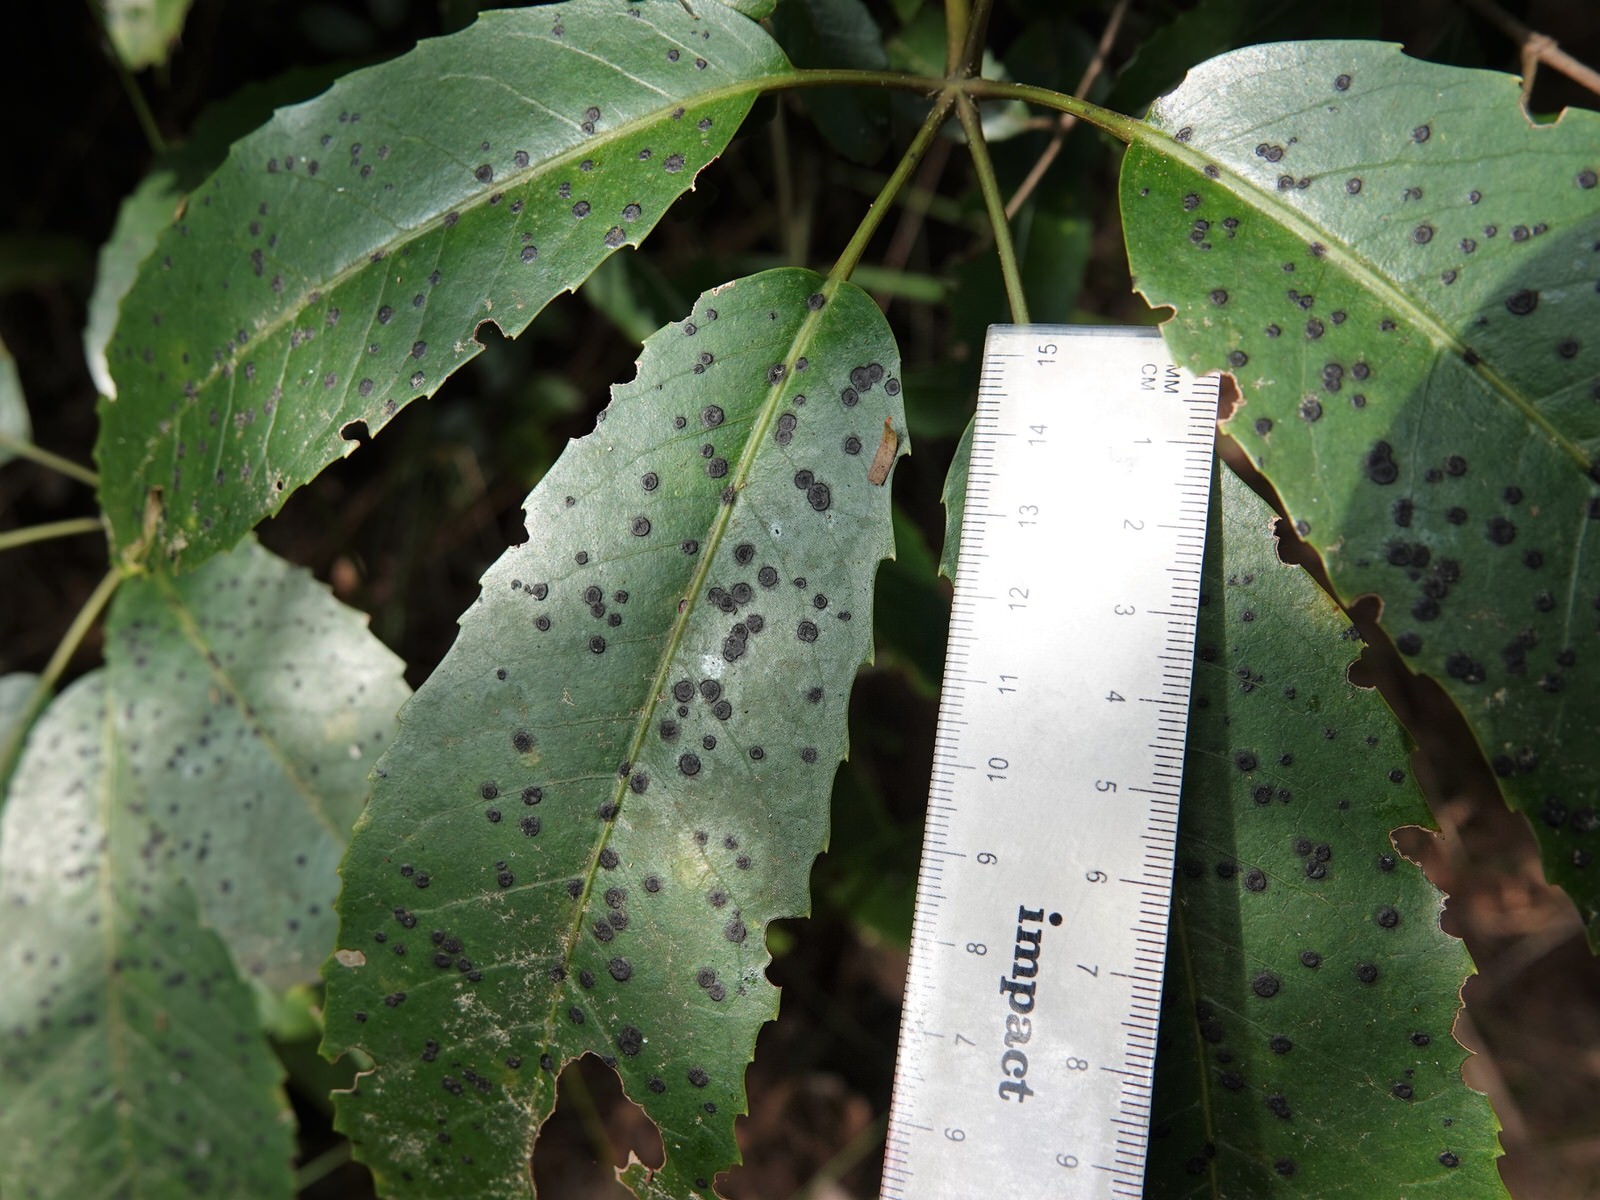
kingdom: Plantae
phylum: Tracheophyta
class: Magnoliopsida
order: Apiales
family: Araliaceae
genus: Neopanax
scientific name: Neopanax arboreus
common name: Five-fingers
